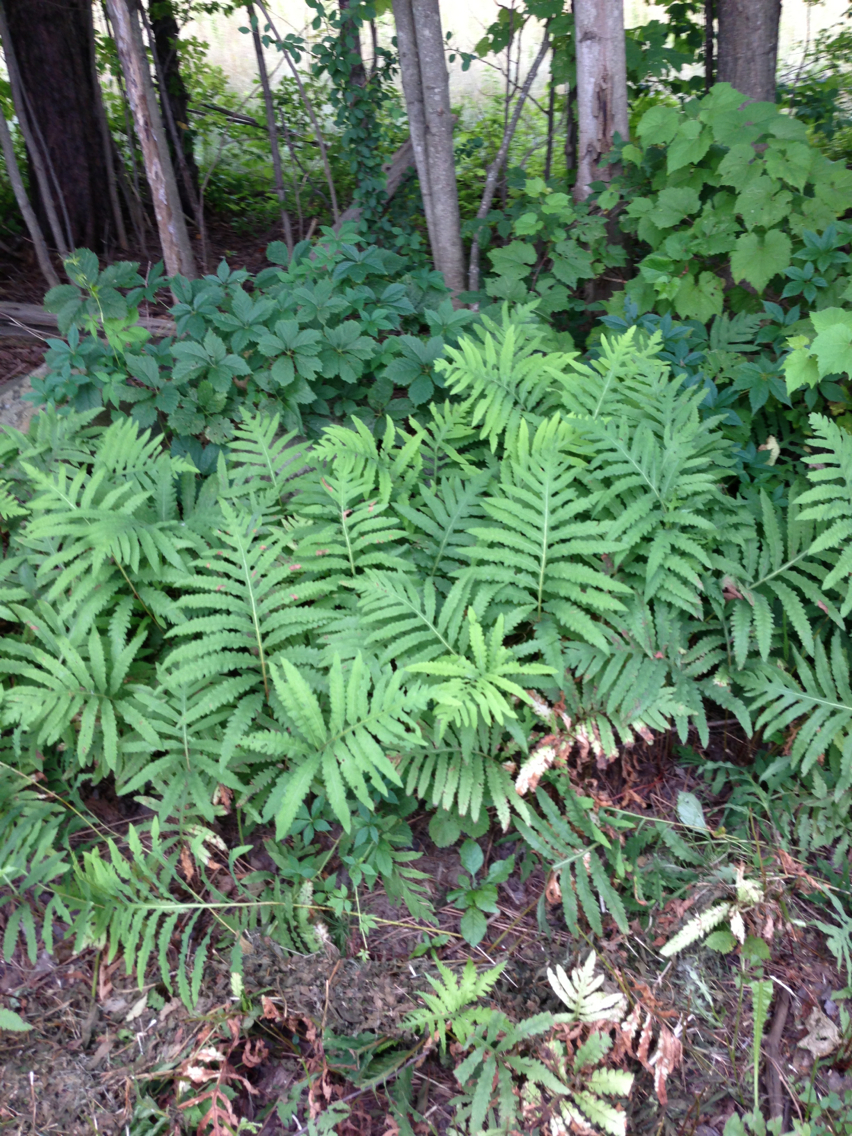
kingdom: Plantae
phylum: Tracheophyta
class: Polypodiopsida
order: Polypodiales
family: Onocleaceae
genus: Onoclea
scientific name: Onoclea sensibilis
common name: Sensitive fern
